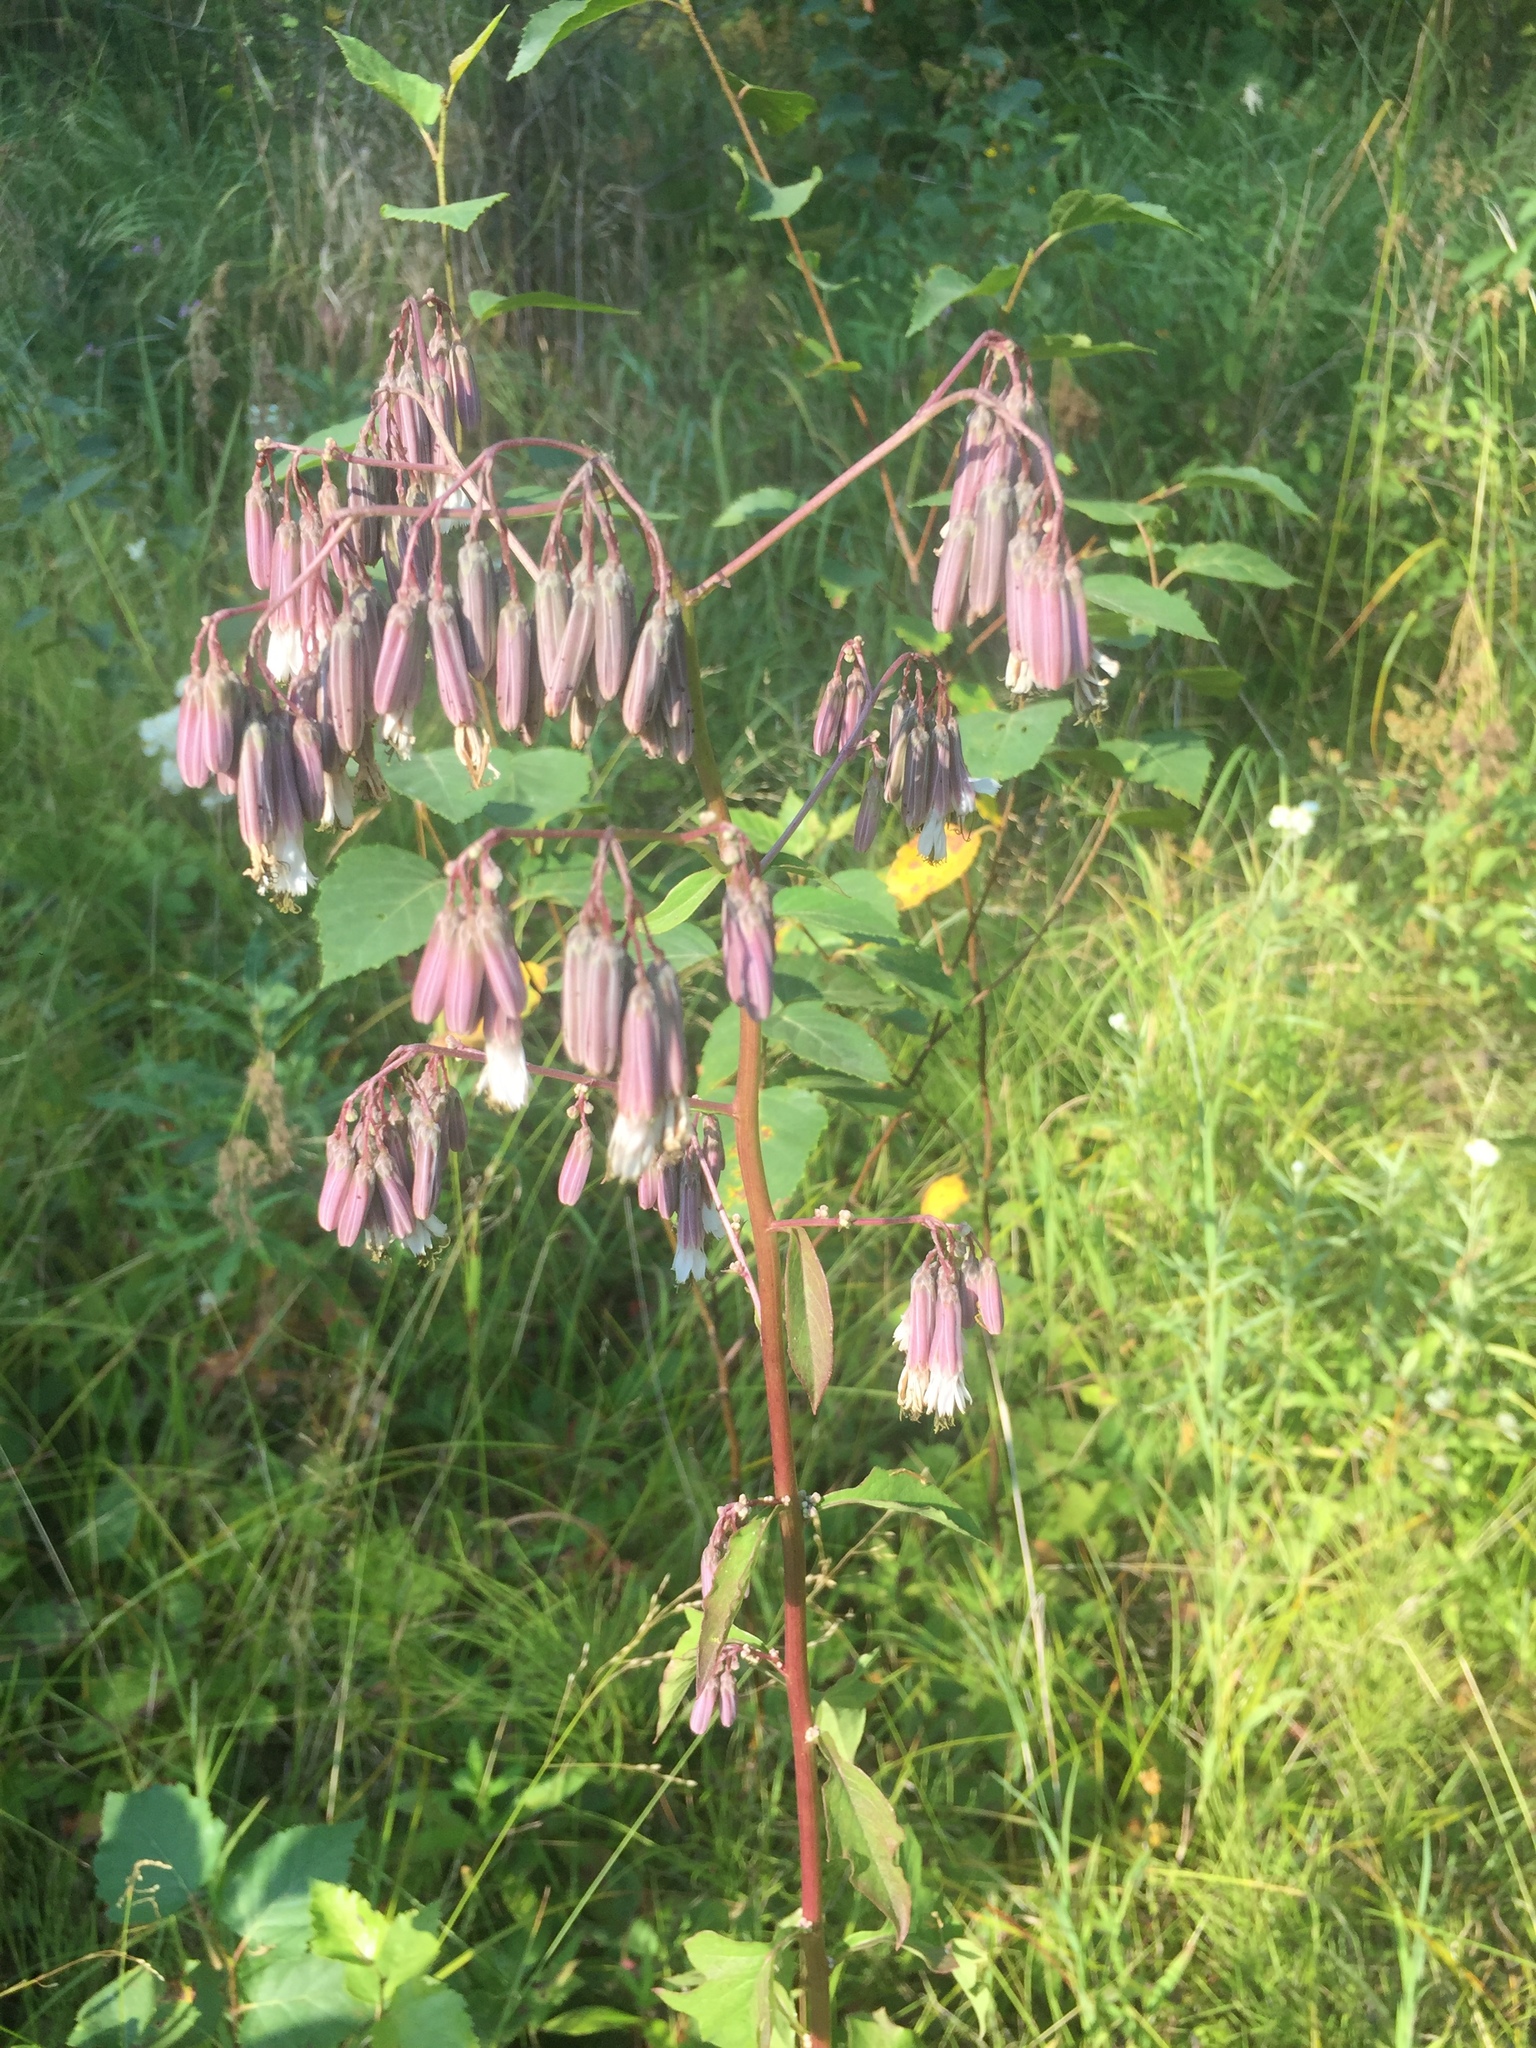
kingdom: Plantae
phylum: Tracheophyta
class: Magnoliopsida
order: Asterales
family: Asteraceae
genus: Nabalus
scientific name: Nabalus albus
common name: White rattlesnakeroot
